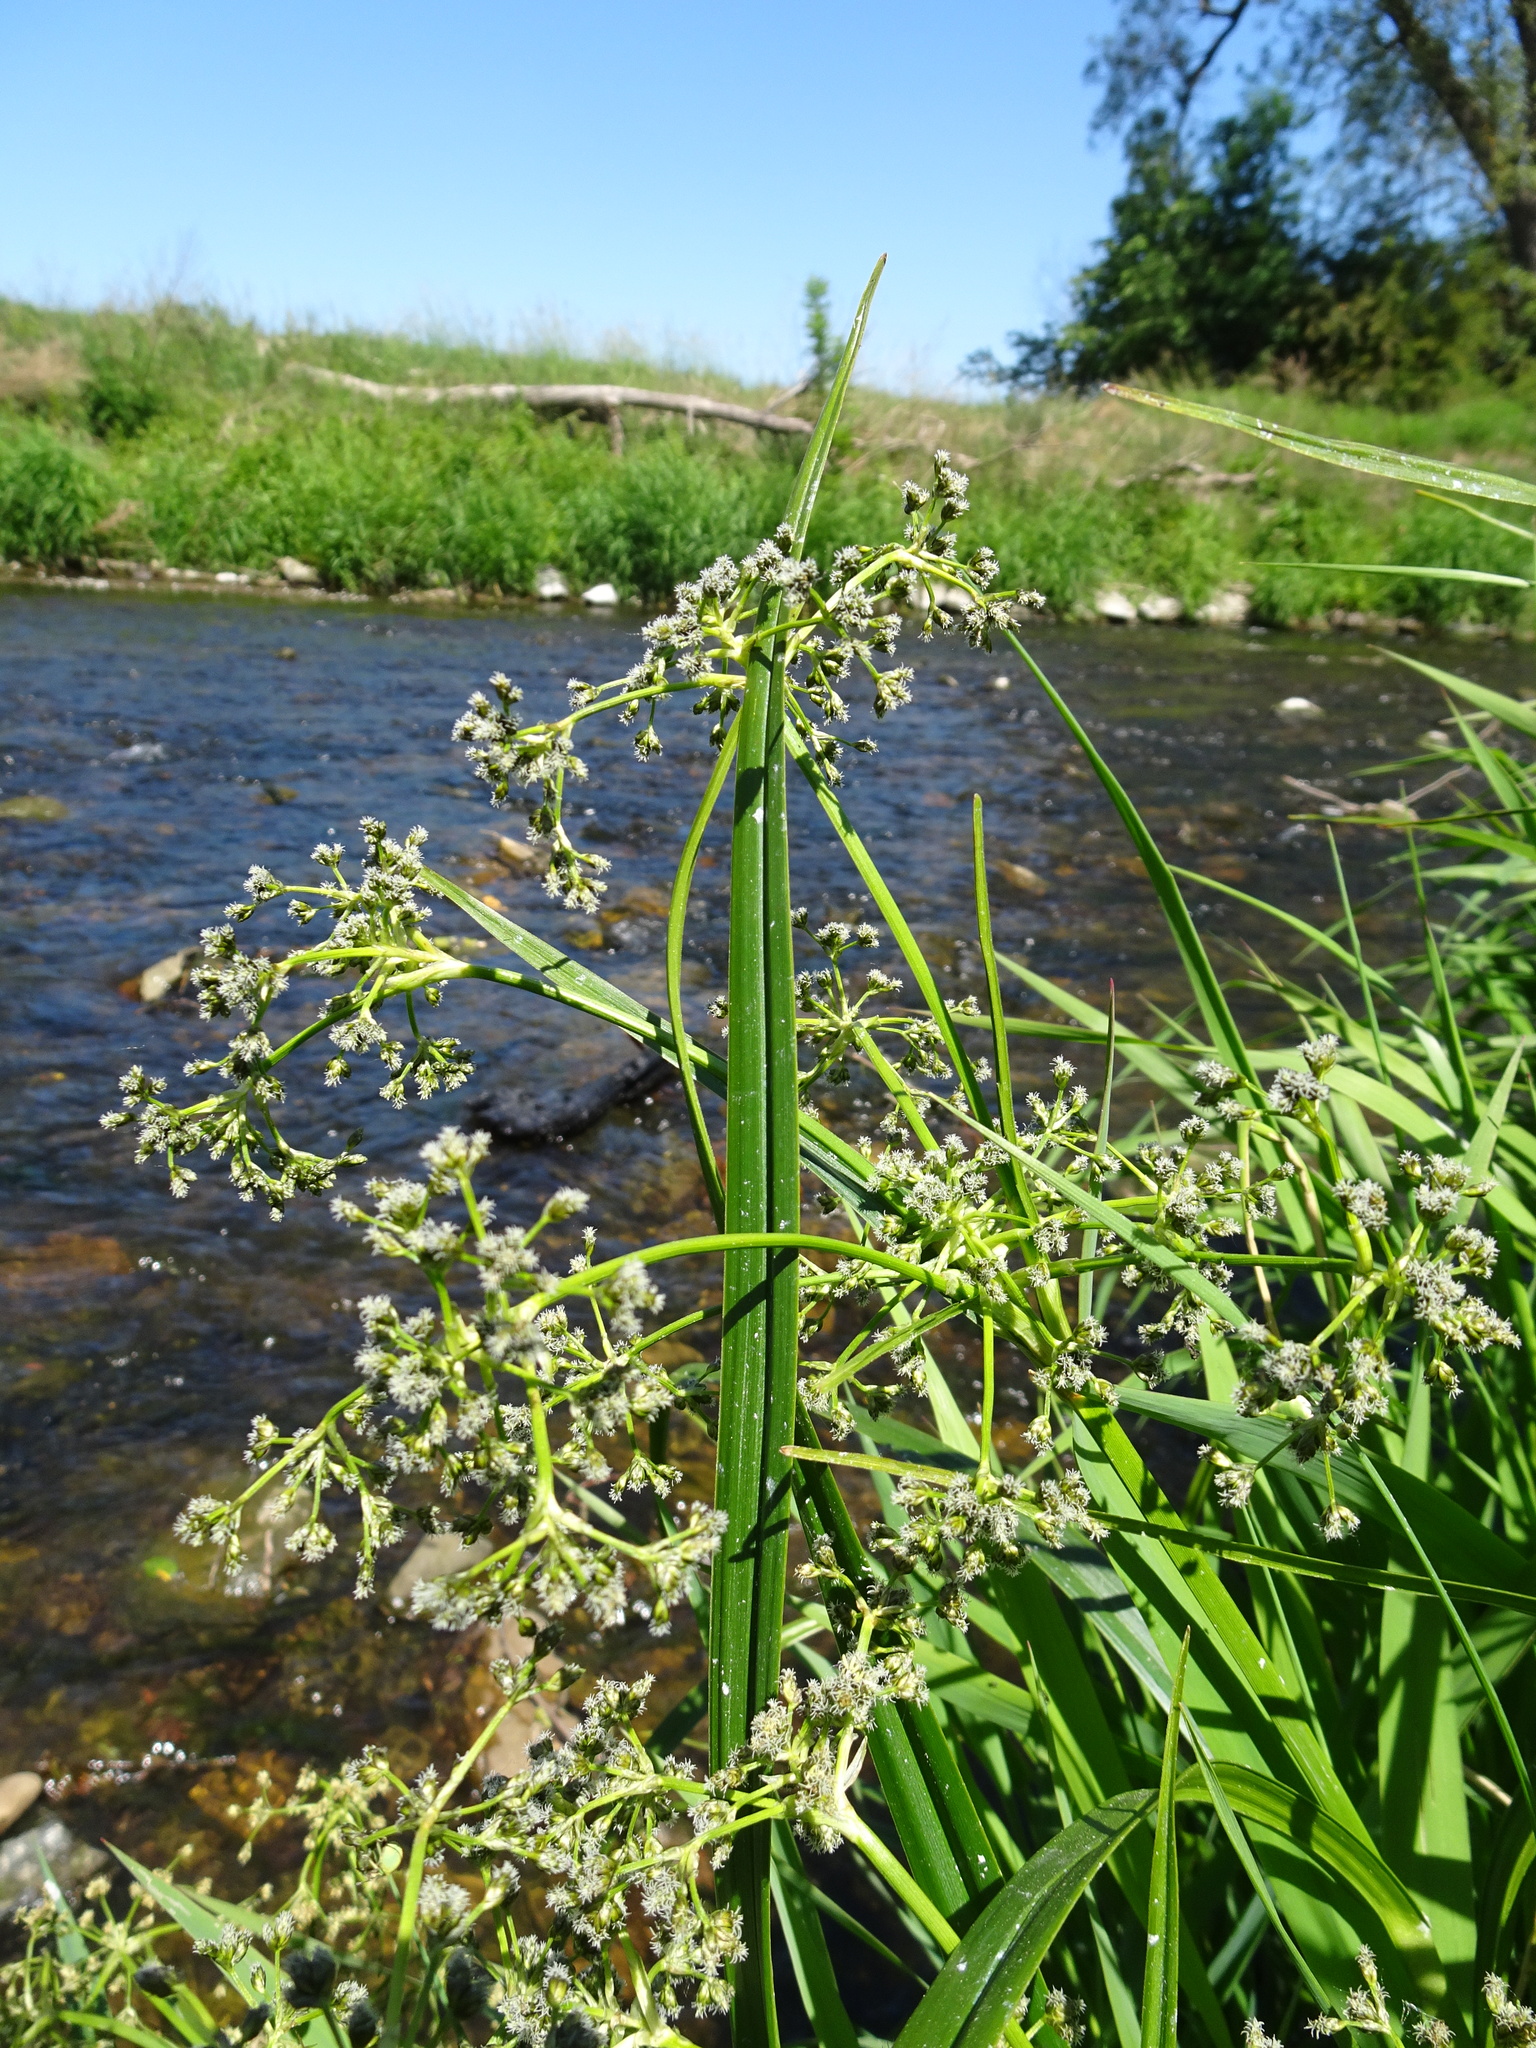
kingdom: Plantae
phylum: Tracheophyta
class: Liliopsida
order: Poales
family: Cyperaceae
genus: Scirpus
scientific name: Scirpus sylvaticus
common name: Wood club-rush
